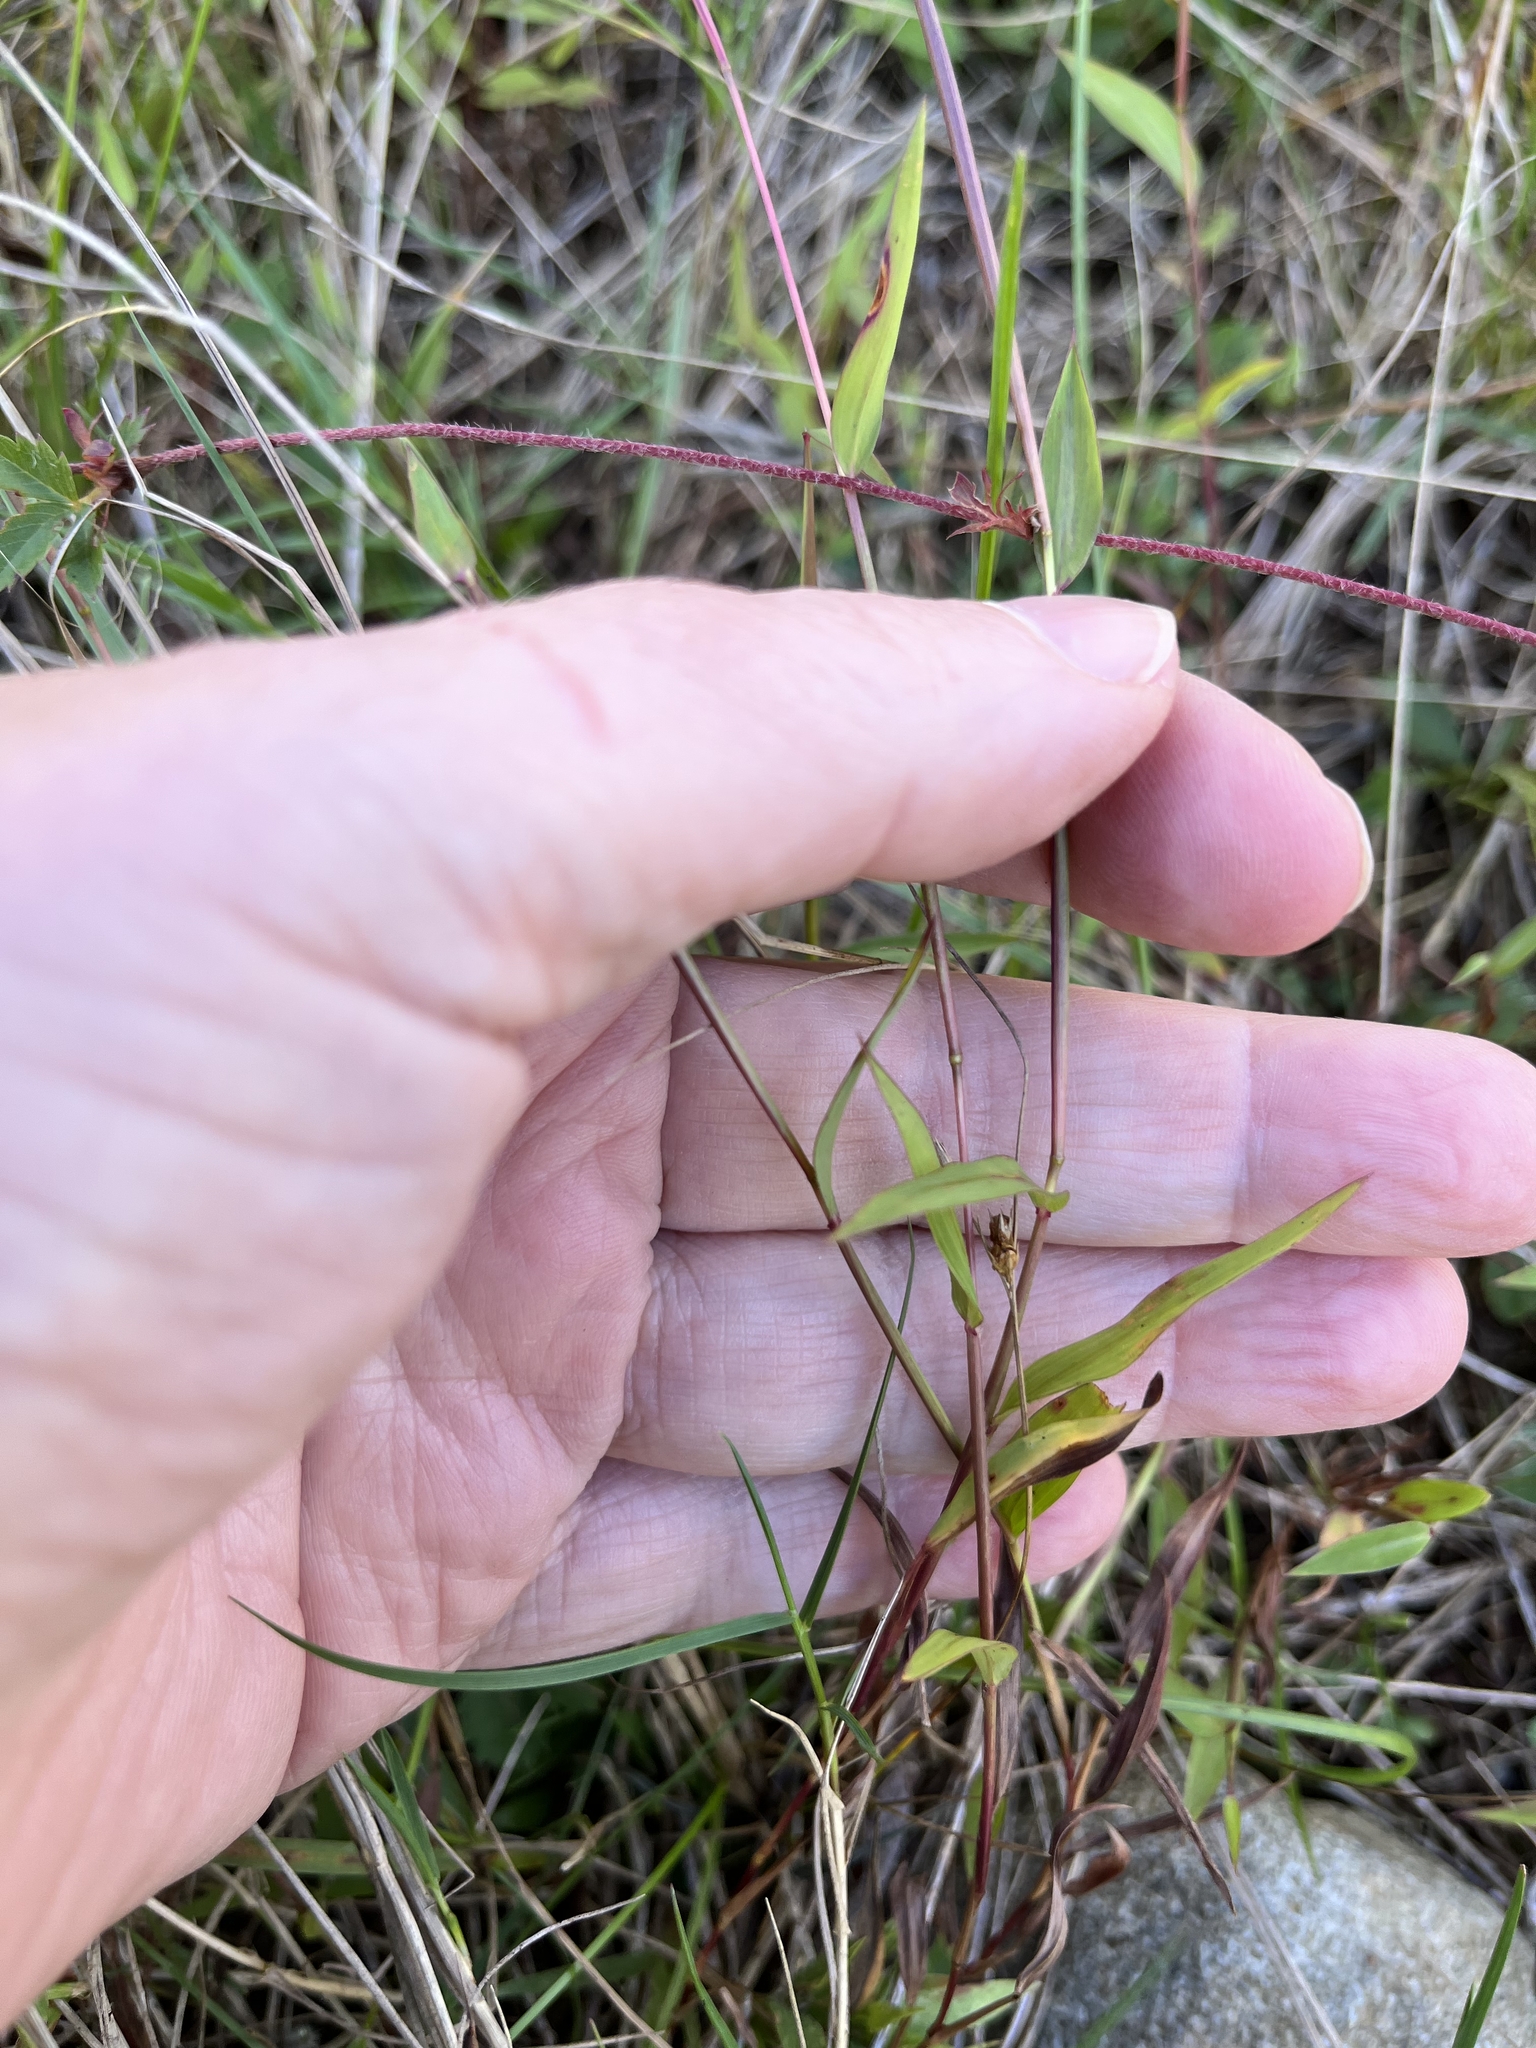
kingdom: Plantae
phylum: Tracheophyta
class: Liliopsida
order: Poales
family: Poaceae
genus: Microstegium
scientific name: Microstegium vimineum
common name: Japanese stiltgrass
